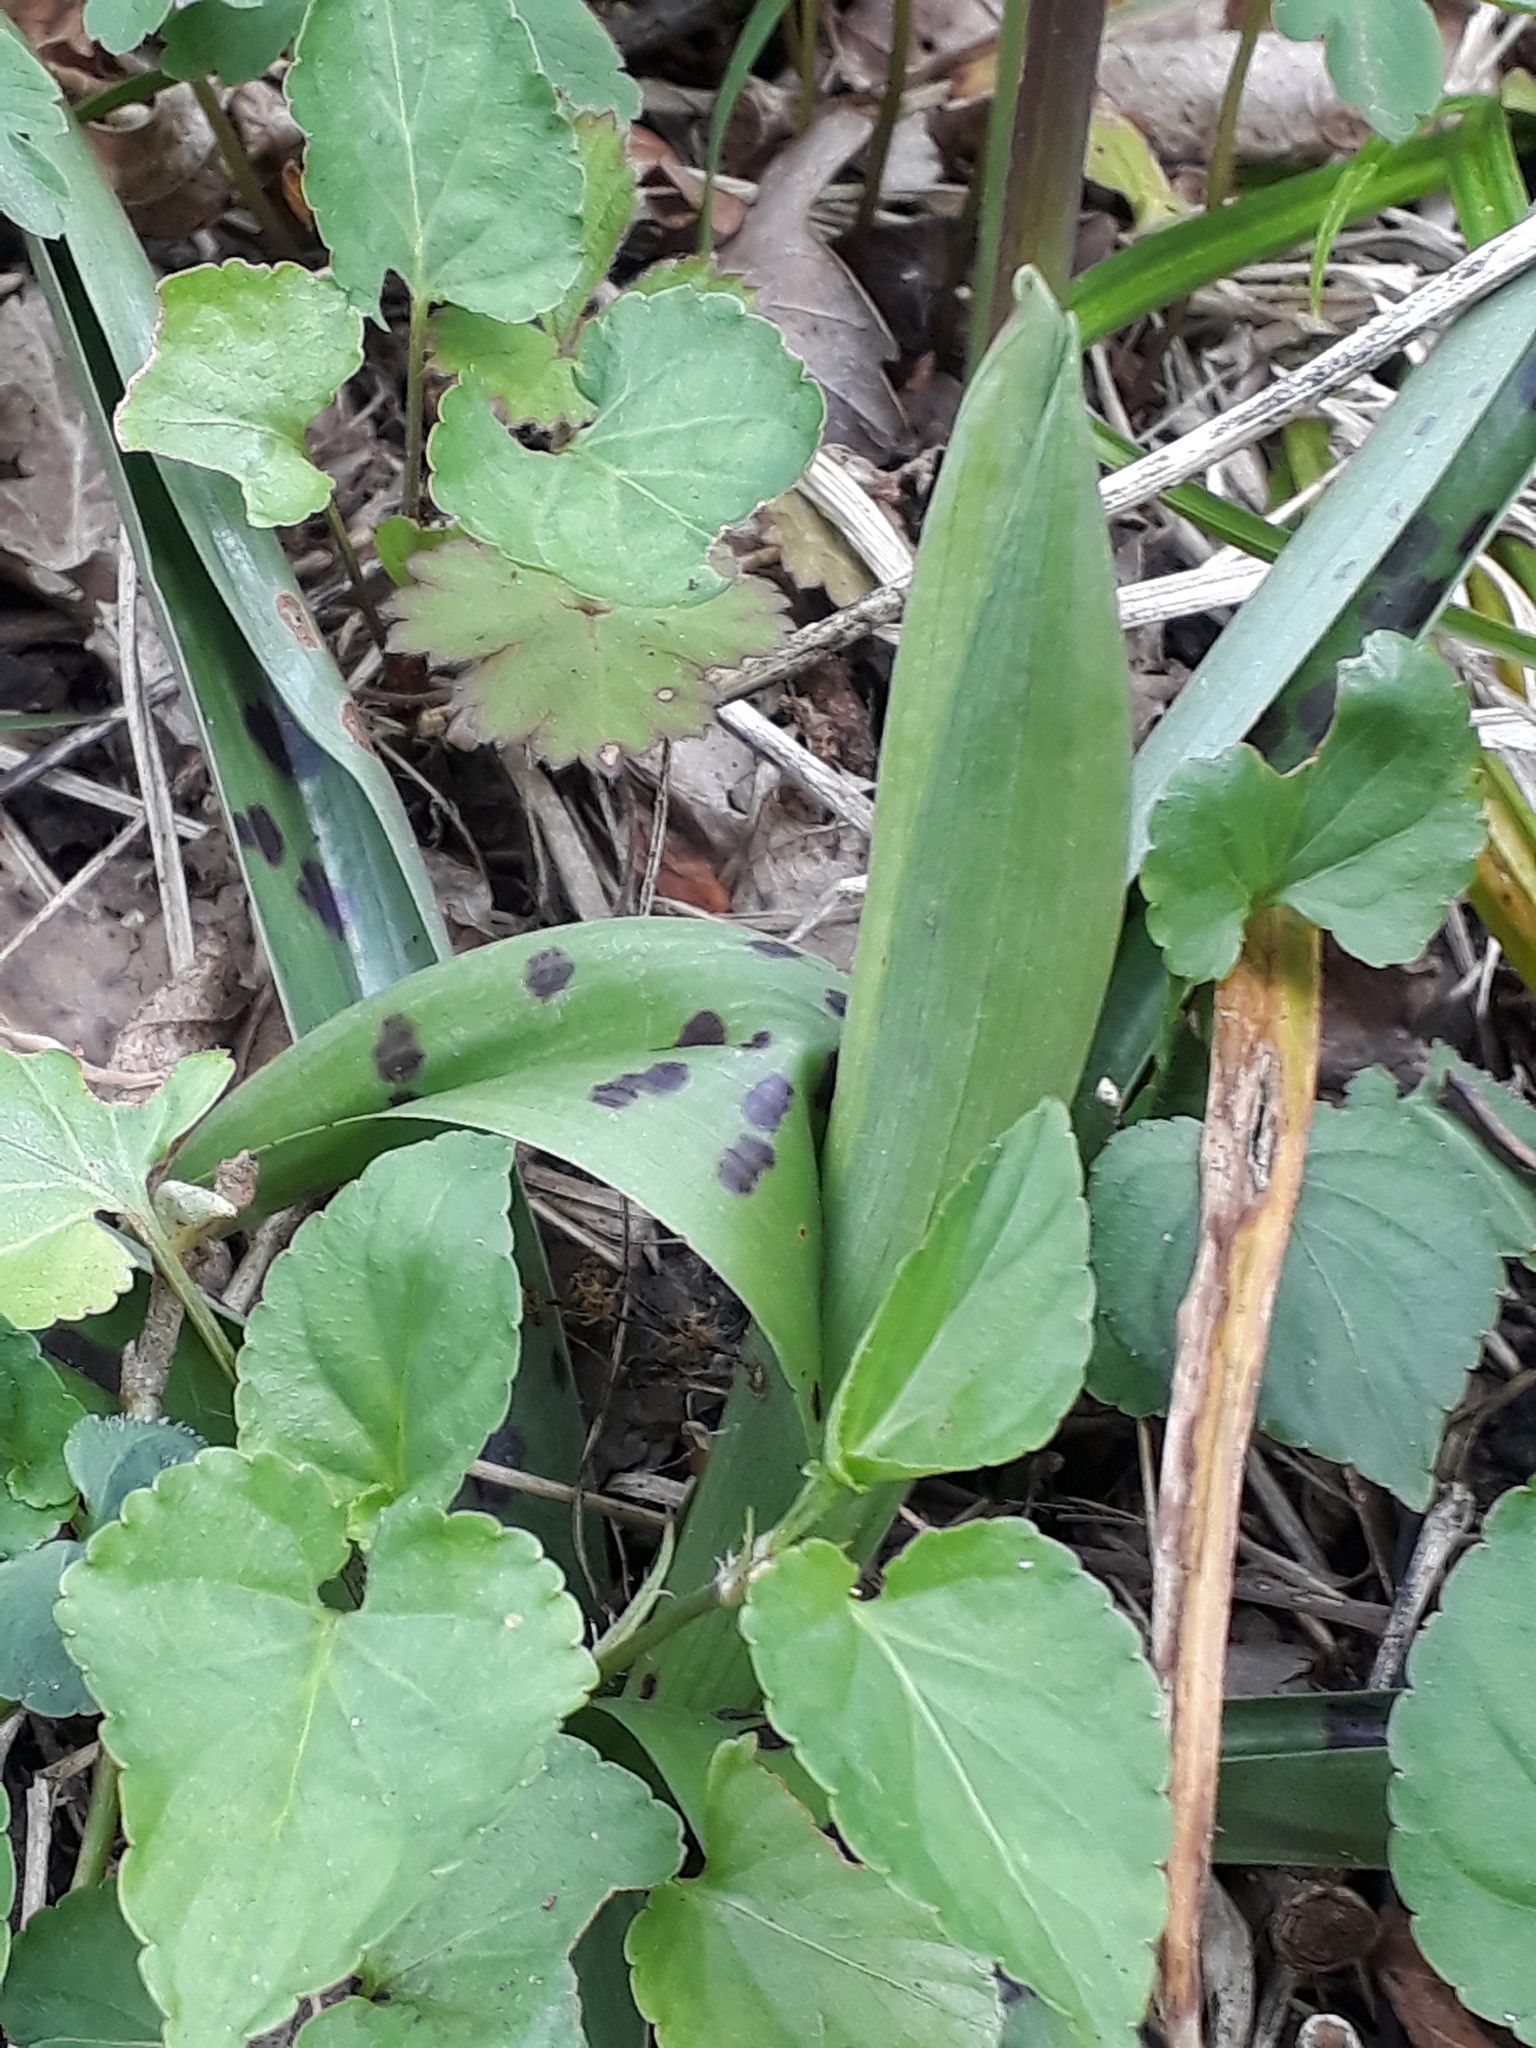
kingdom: Plantae
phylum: Tracheophyta
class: Liliopsida
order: Asparagales
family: Orchidaceae
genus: Orchis
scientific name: Orchis mascula
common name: Early-purple orchid
